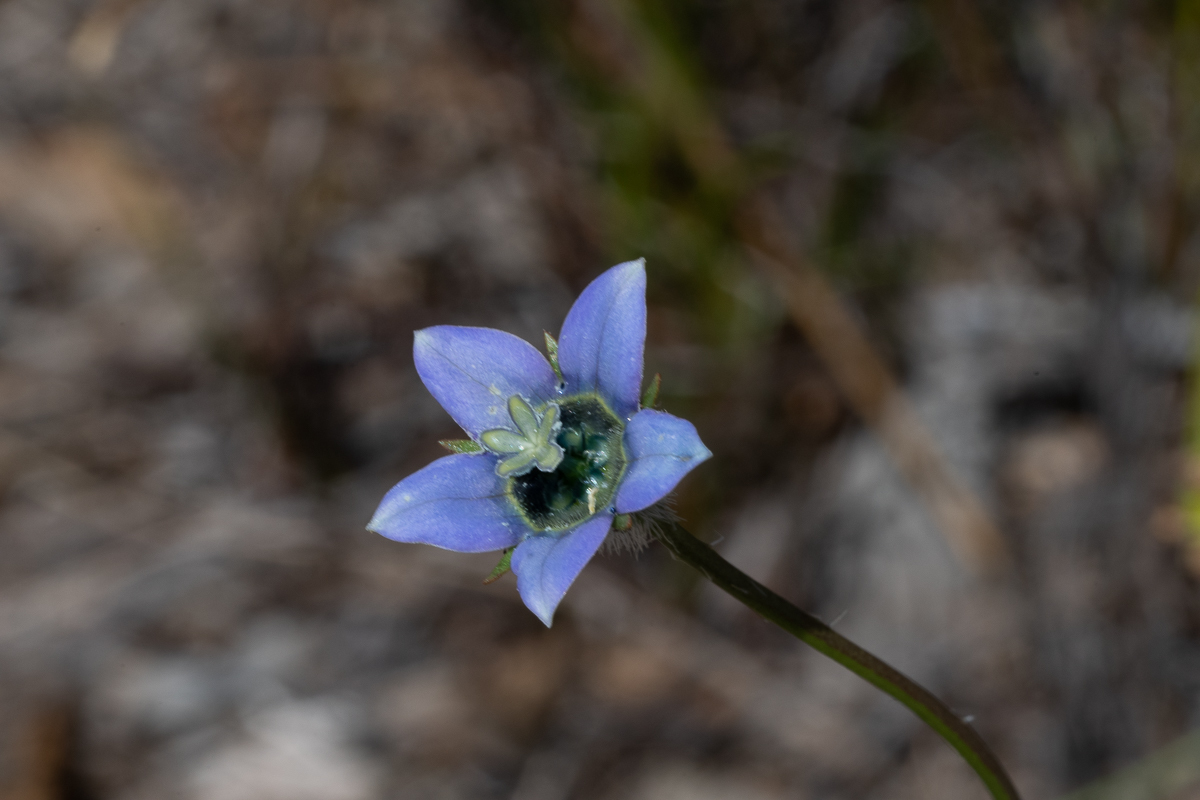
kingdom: Plantae
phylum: Tracheophyta
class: Magnoliopsida
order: Asterales
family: Campanulaceae
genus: Wahlenbergia
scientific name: Wahlenbergia capensis
